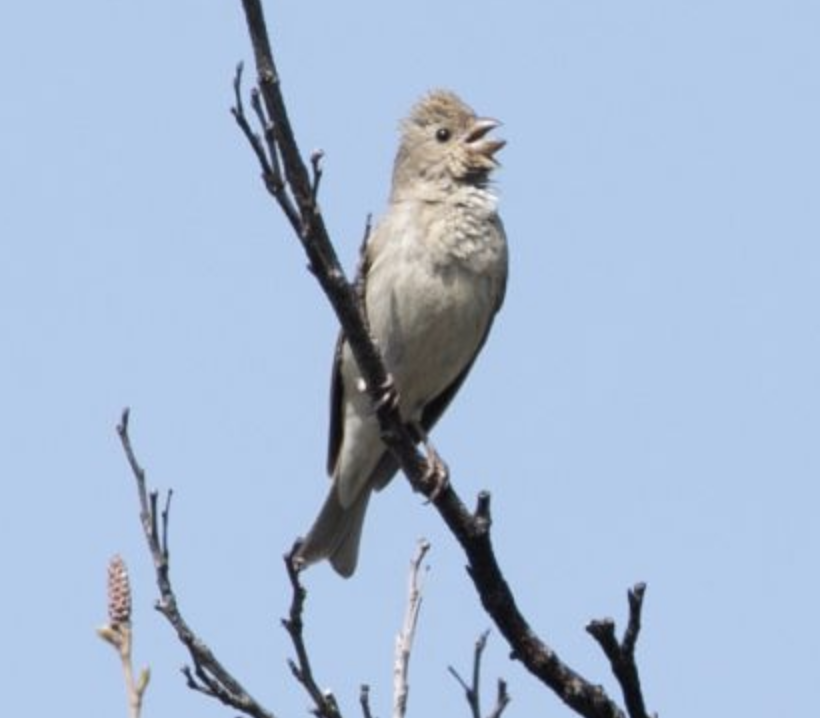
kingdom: Animalia
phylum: Chordata
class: Aves
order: Passeriformes
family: Fringillidae
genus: Carpodacus
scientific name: Carpodacus erythrinus
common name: Common rosefinch
